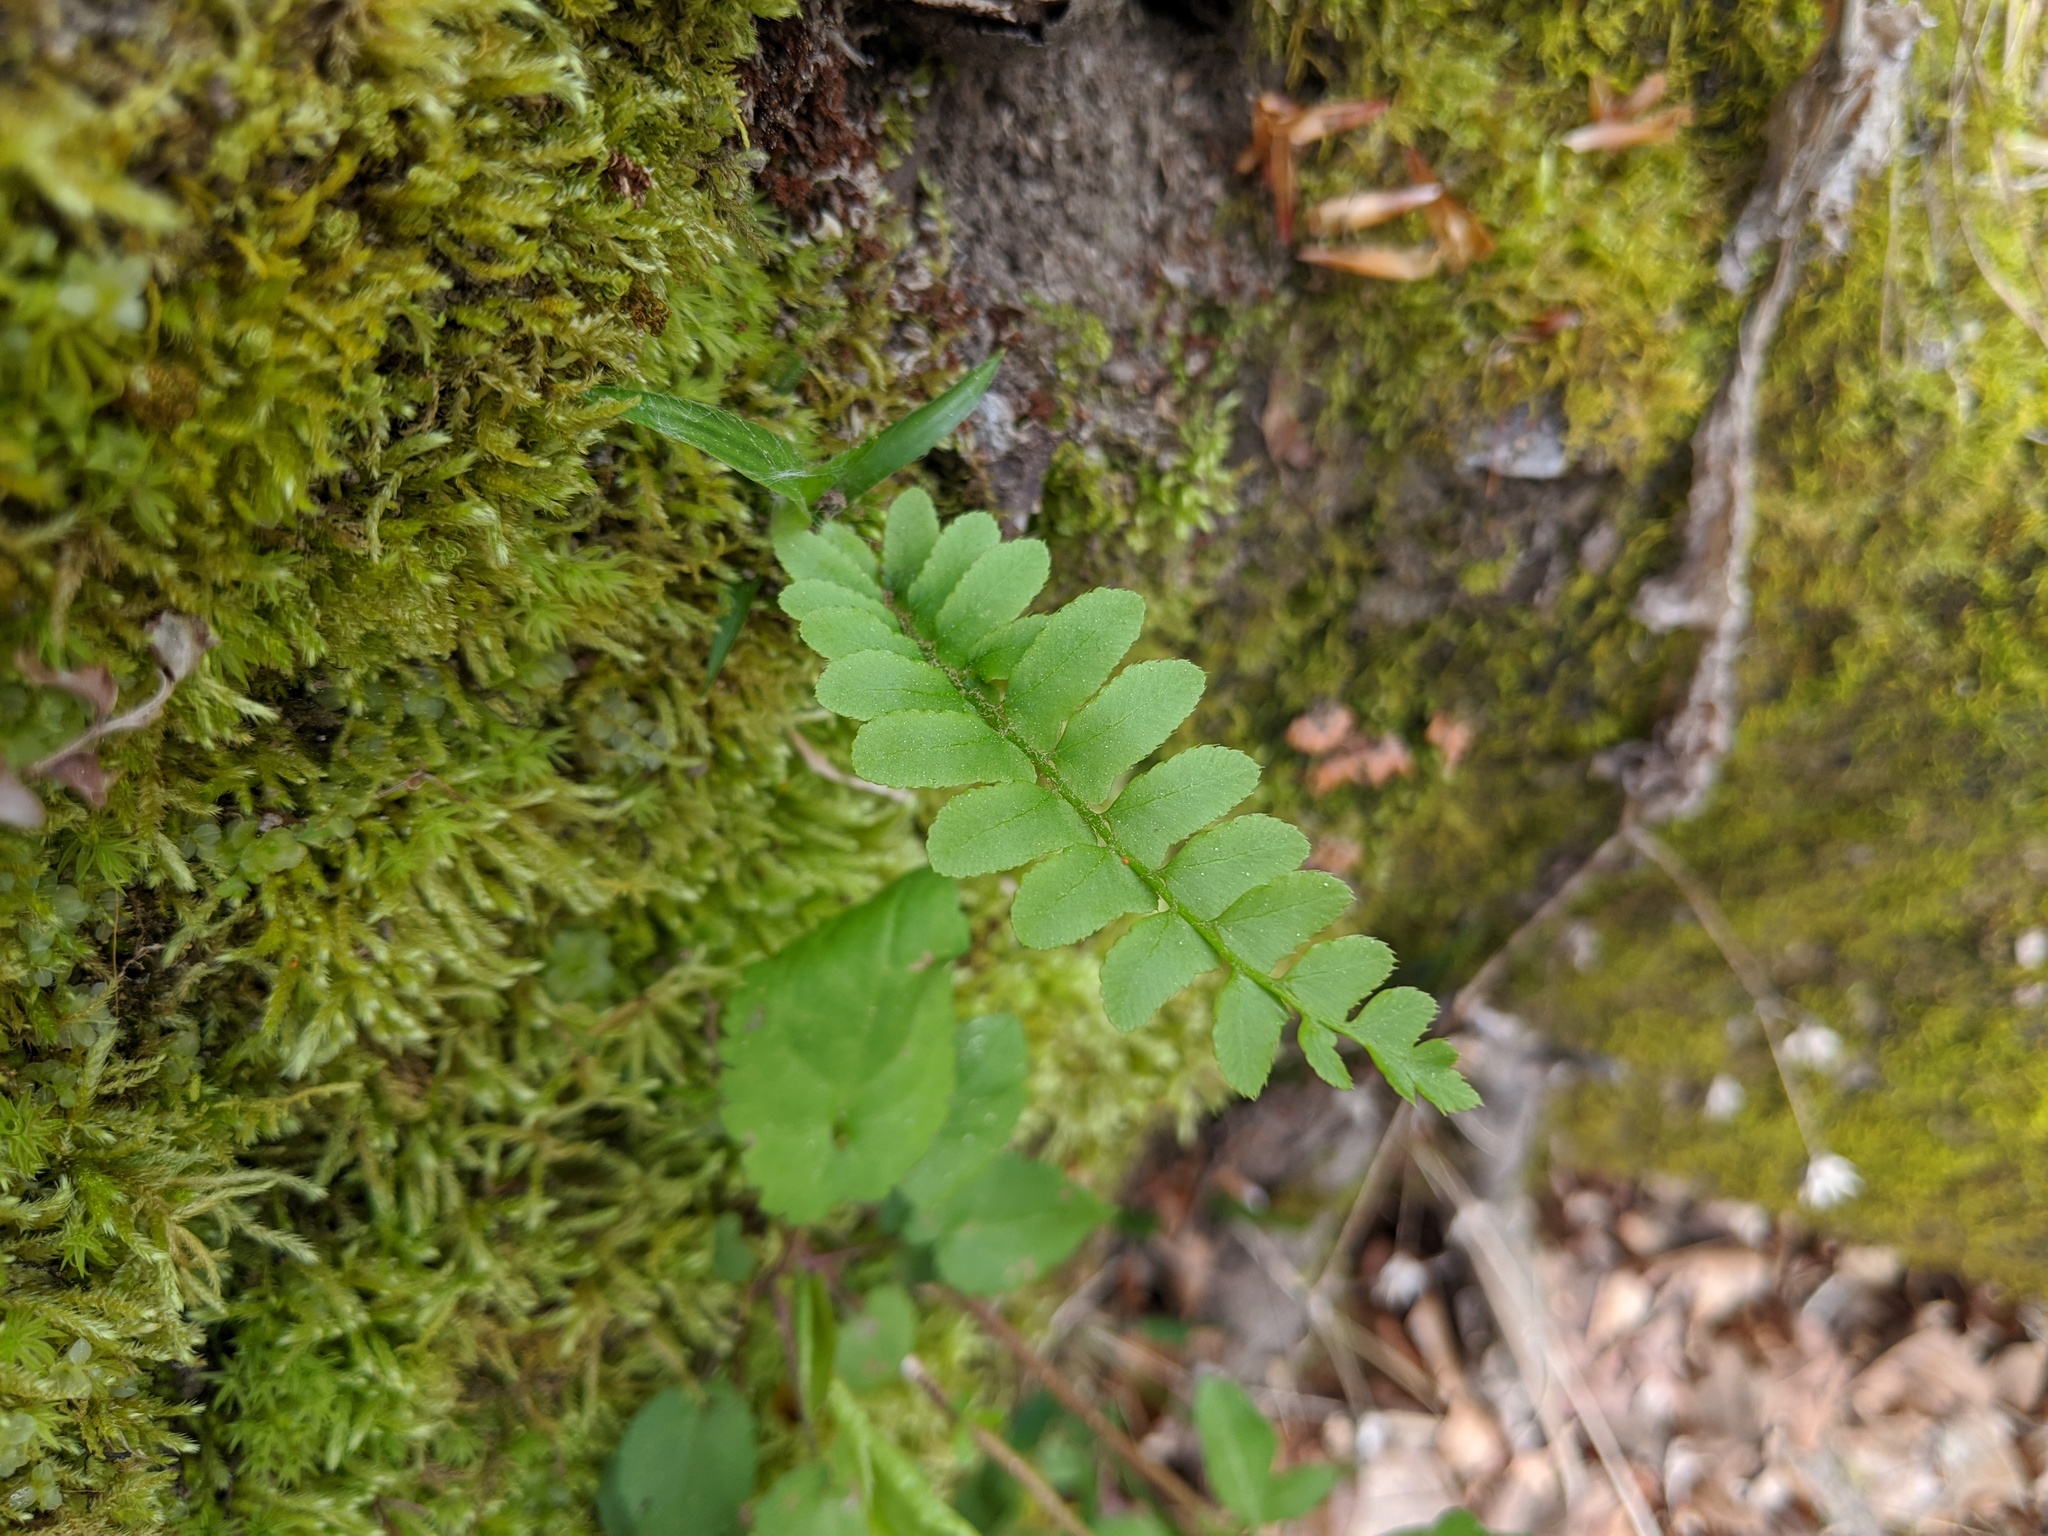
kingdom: Plantae
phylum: Tracheophyta
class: Polypodiopsida
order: Polypodiales
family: Dryopteridaceae
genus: Polystichum
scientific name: Polystichum acrostichoides
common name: Christmas fern
